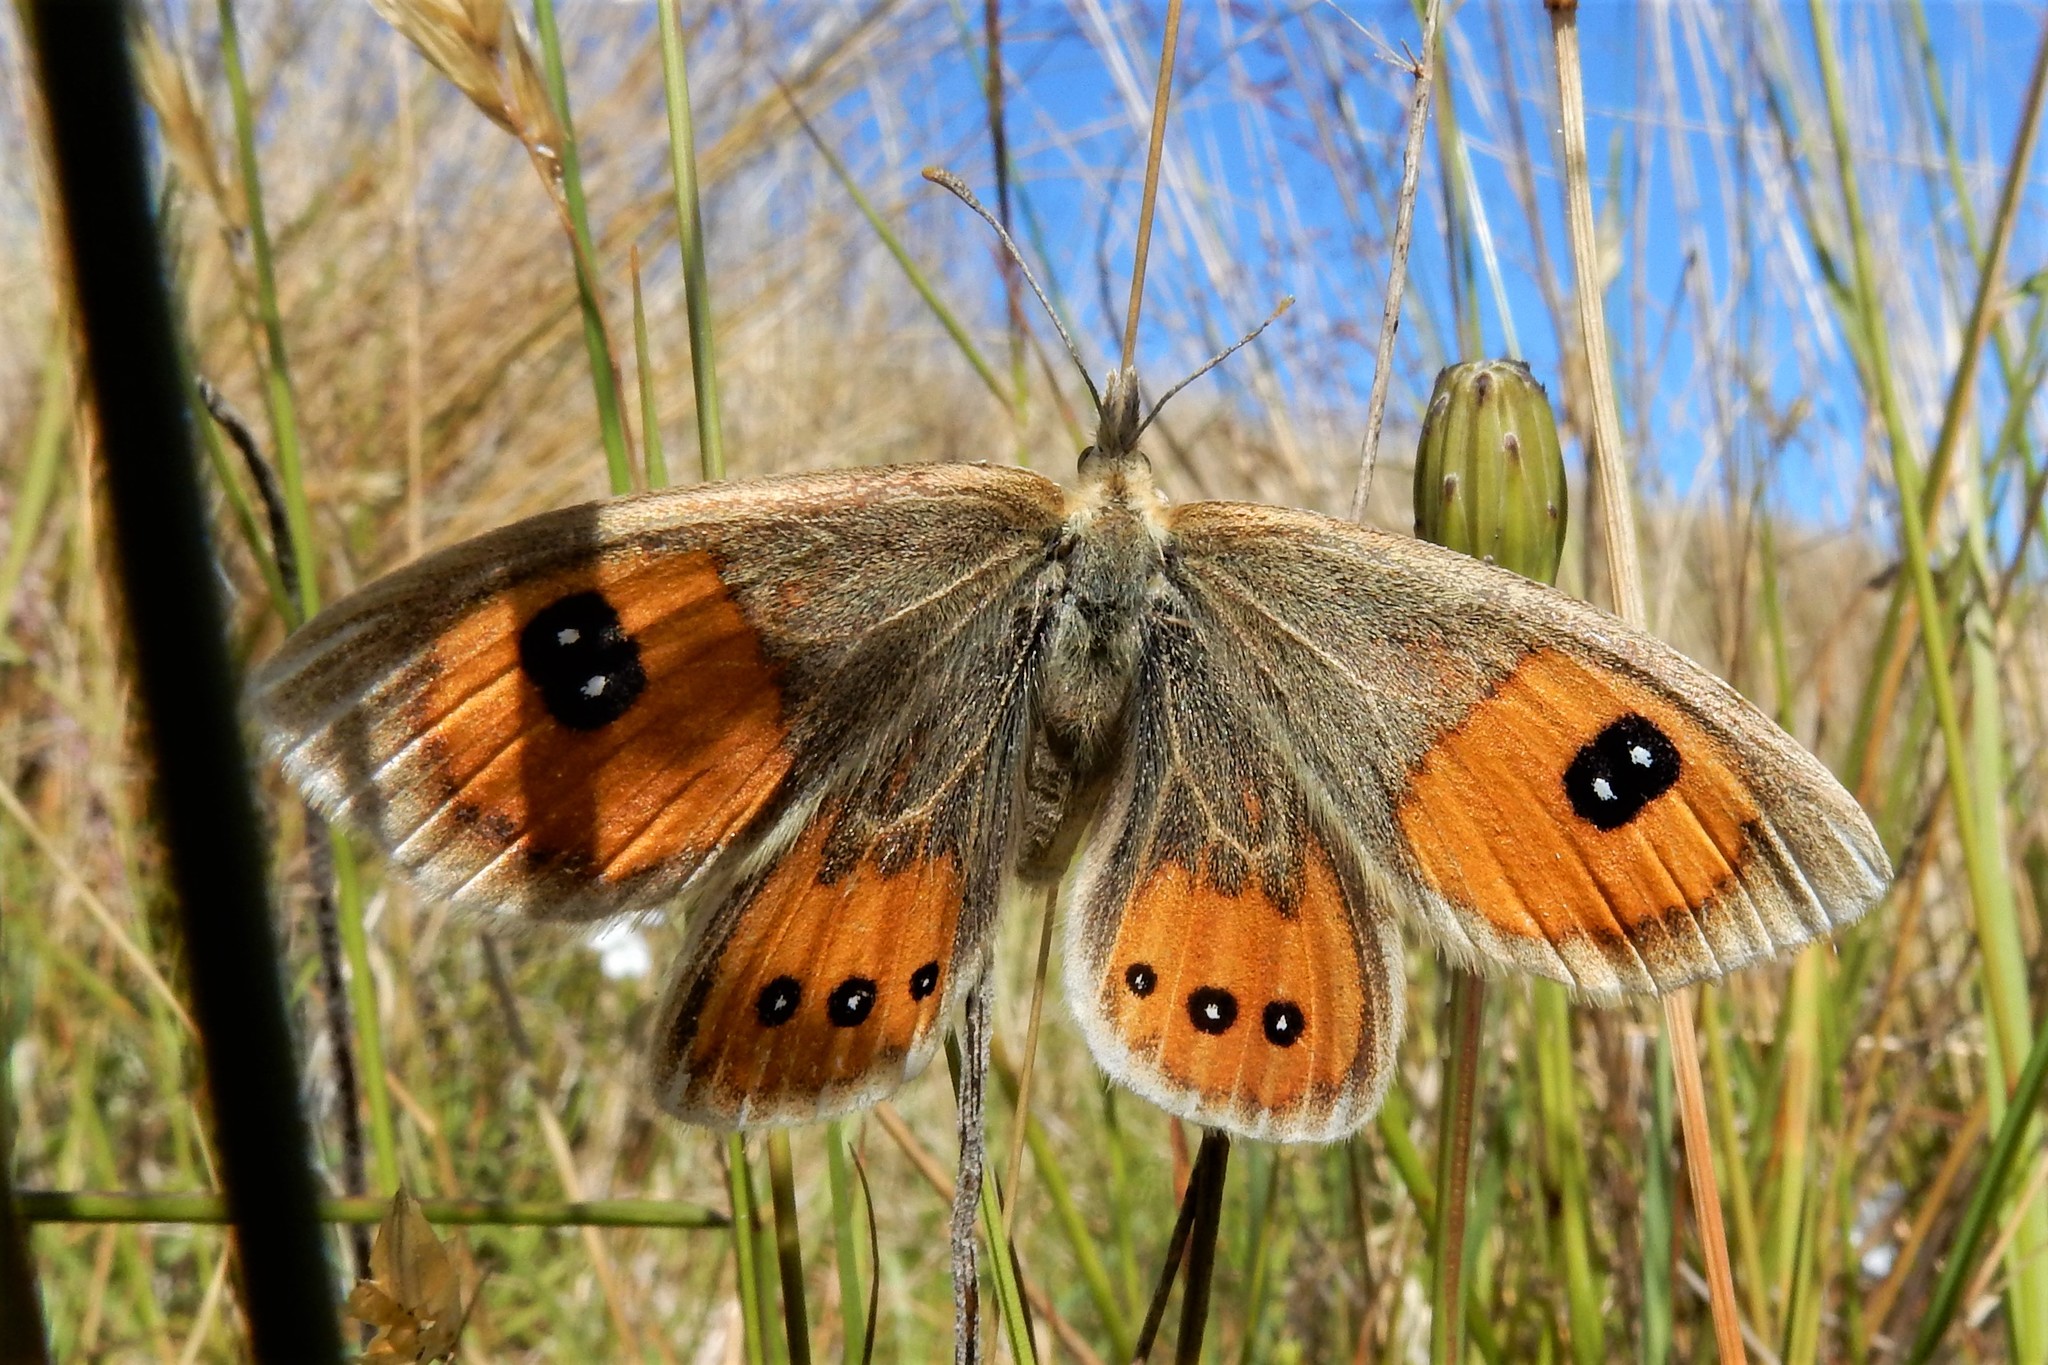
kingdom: Animalia
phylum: Arthropoda
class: Insecta
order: Lepidoptera
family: Nymphalidae
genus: Argyrophenga
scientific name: Argyrophenga antipodum
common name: Common tussock butterfly
